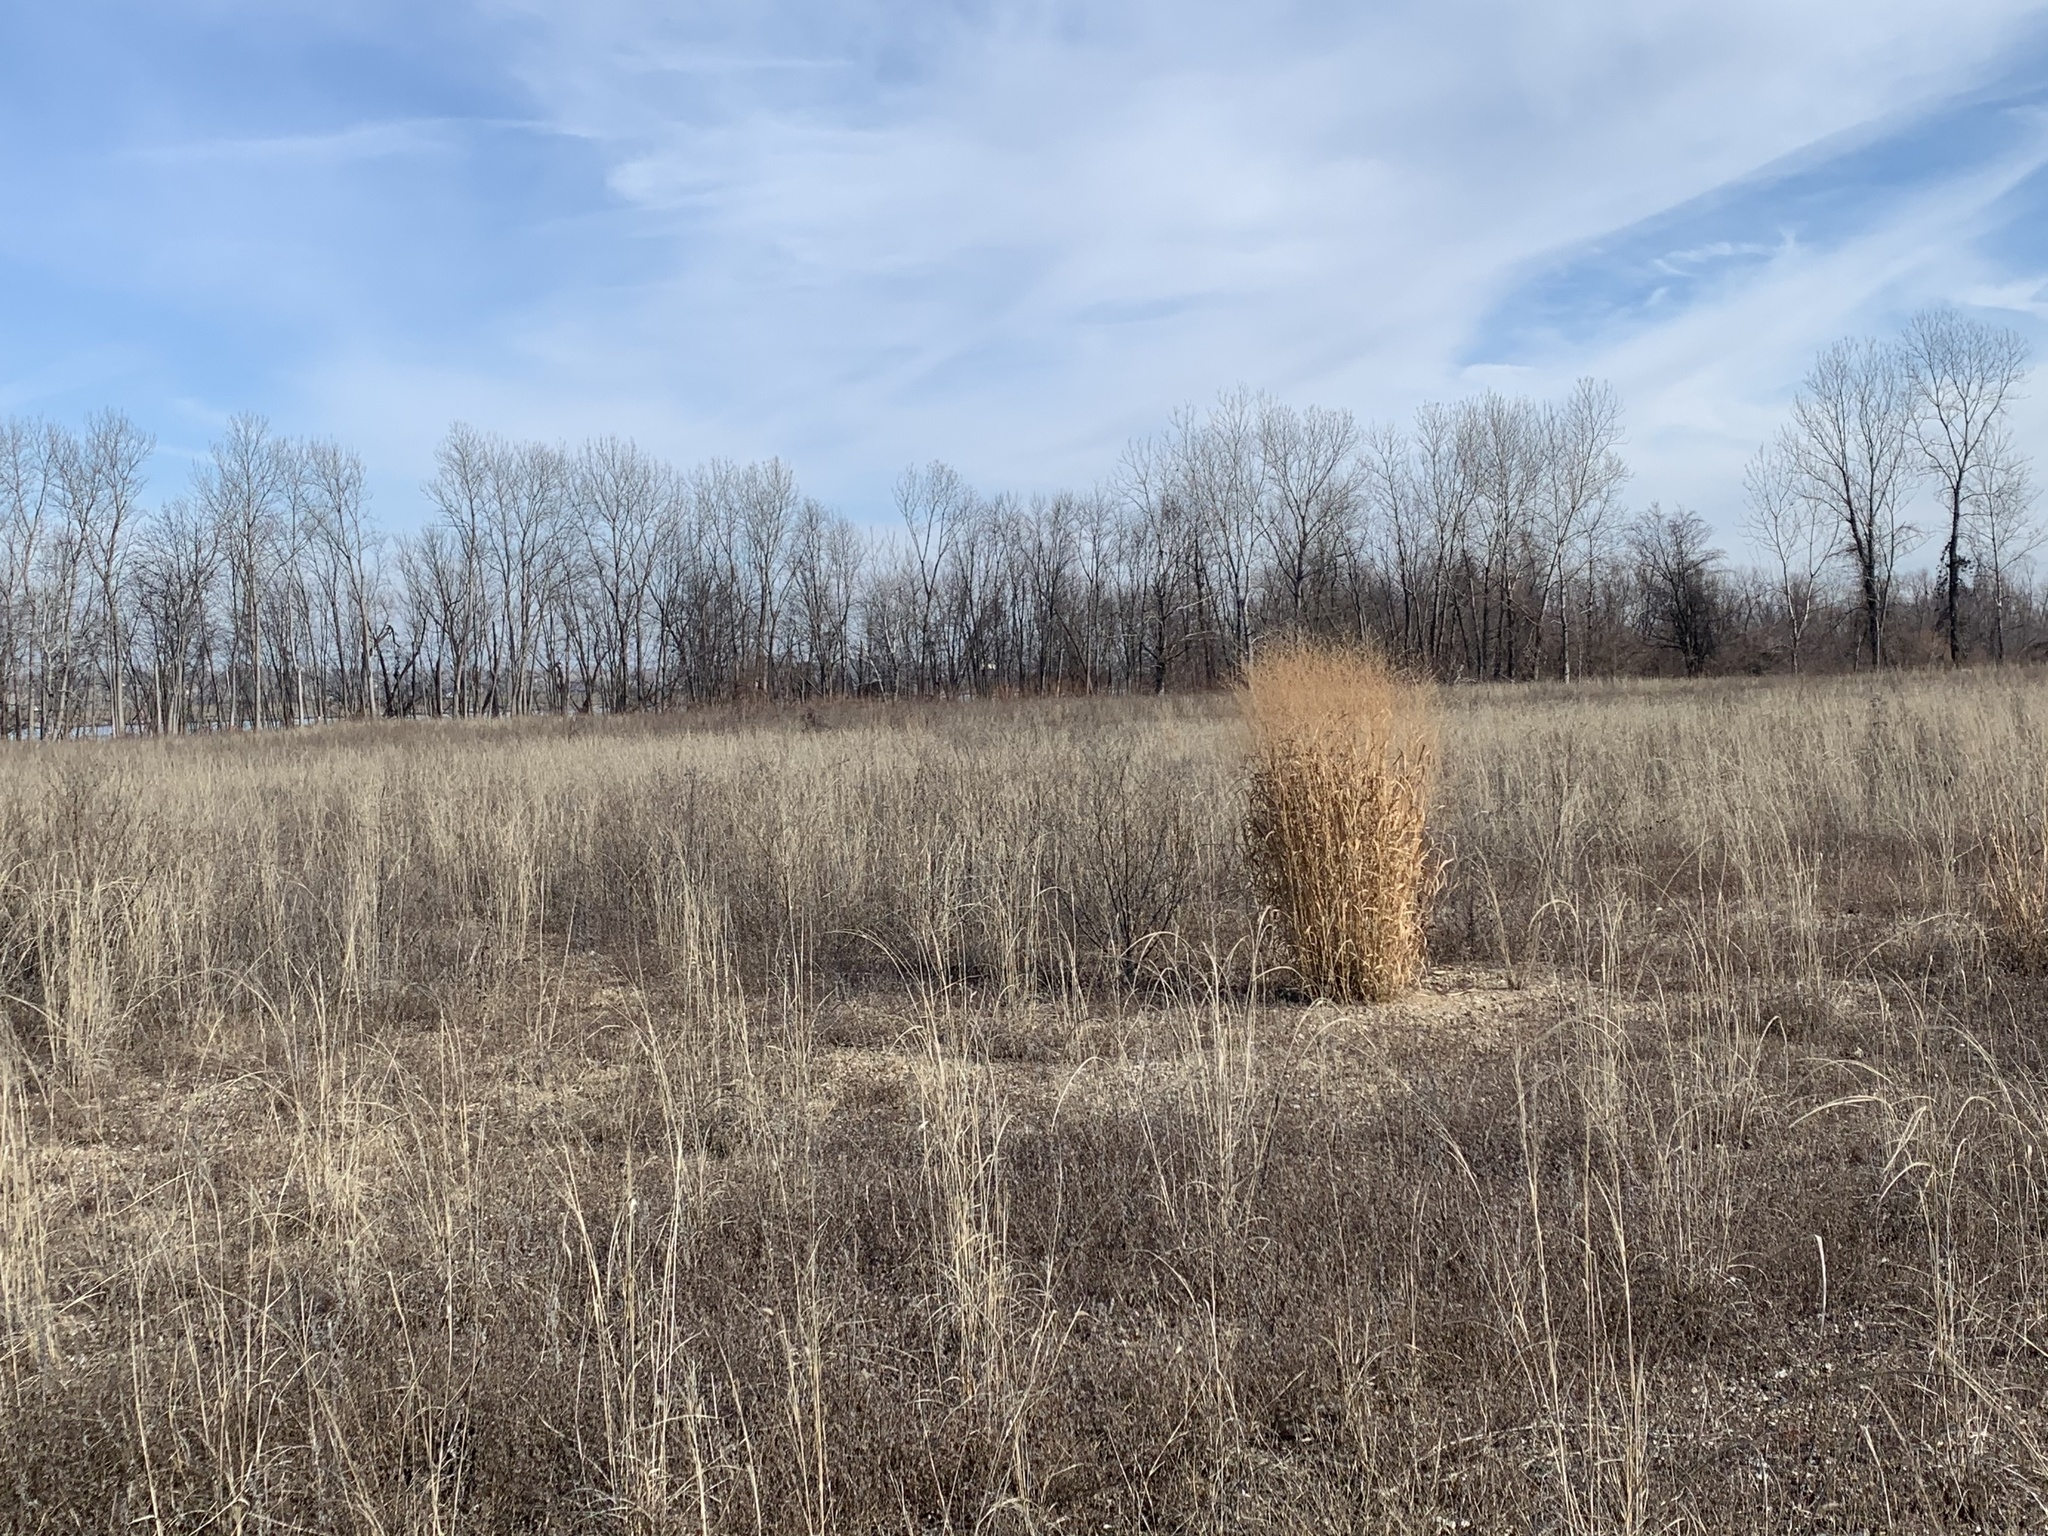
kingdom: Plantae
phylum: Tracheophyta
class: Liliopsida
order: Poales
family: Poaceae
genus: Panicum
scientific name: Panicum virgatum
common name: Switchgrass
